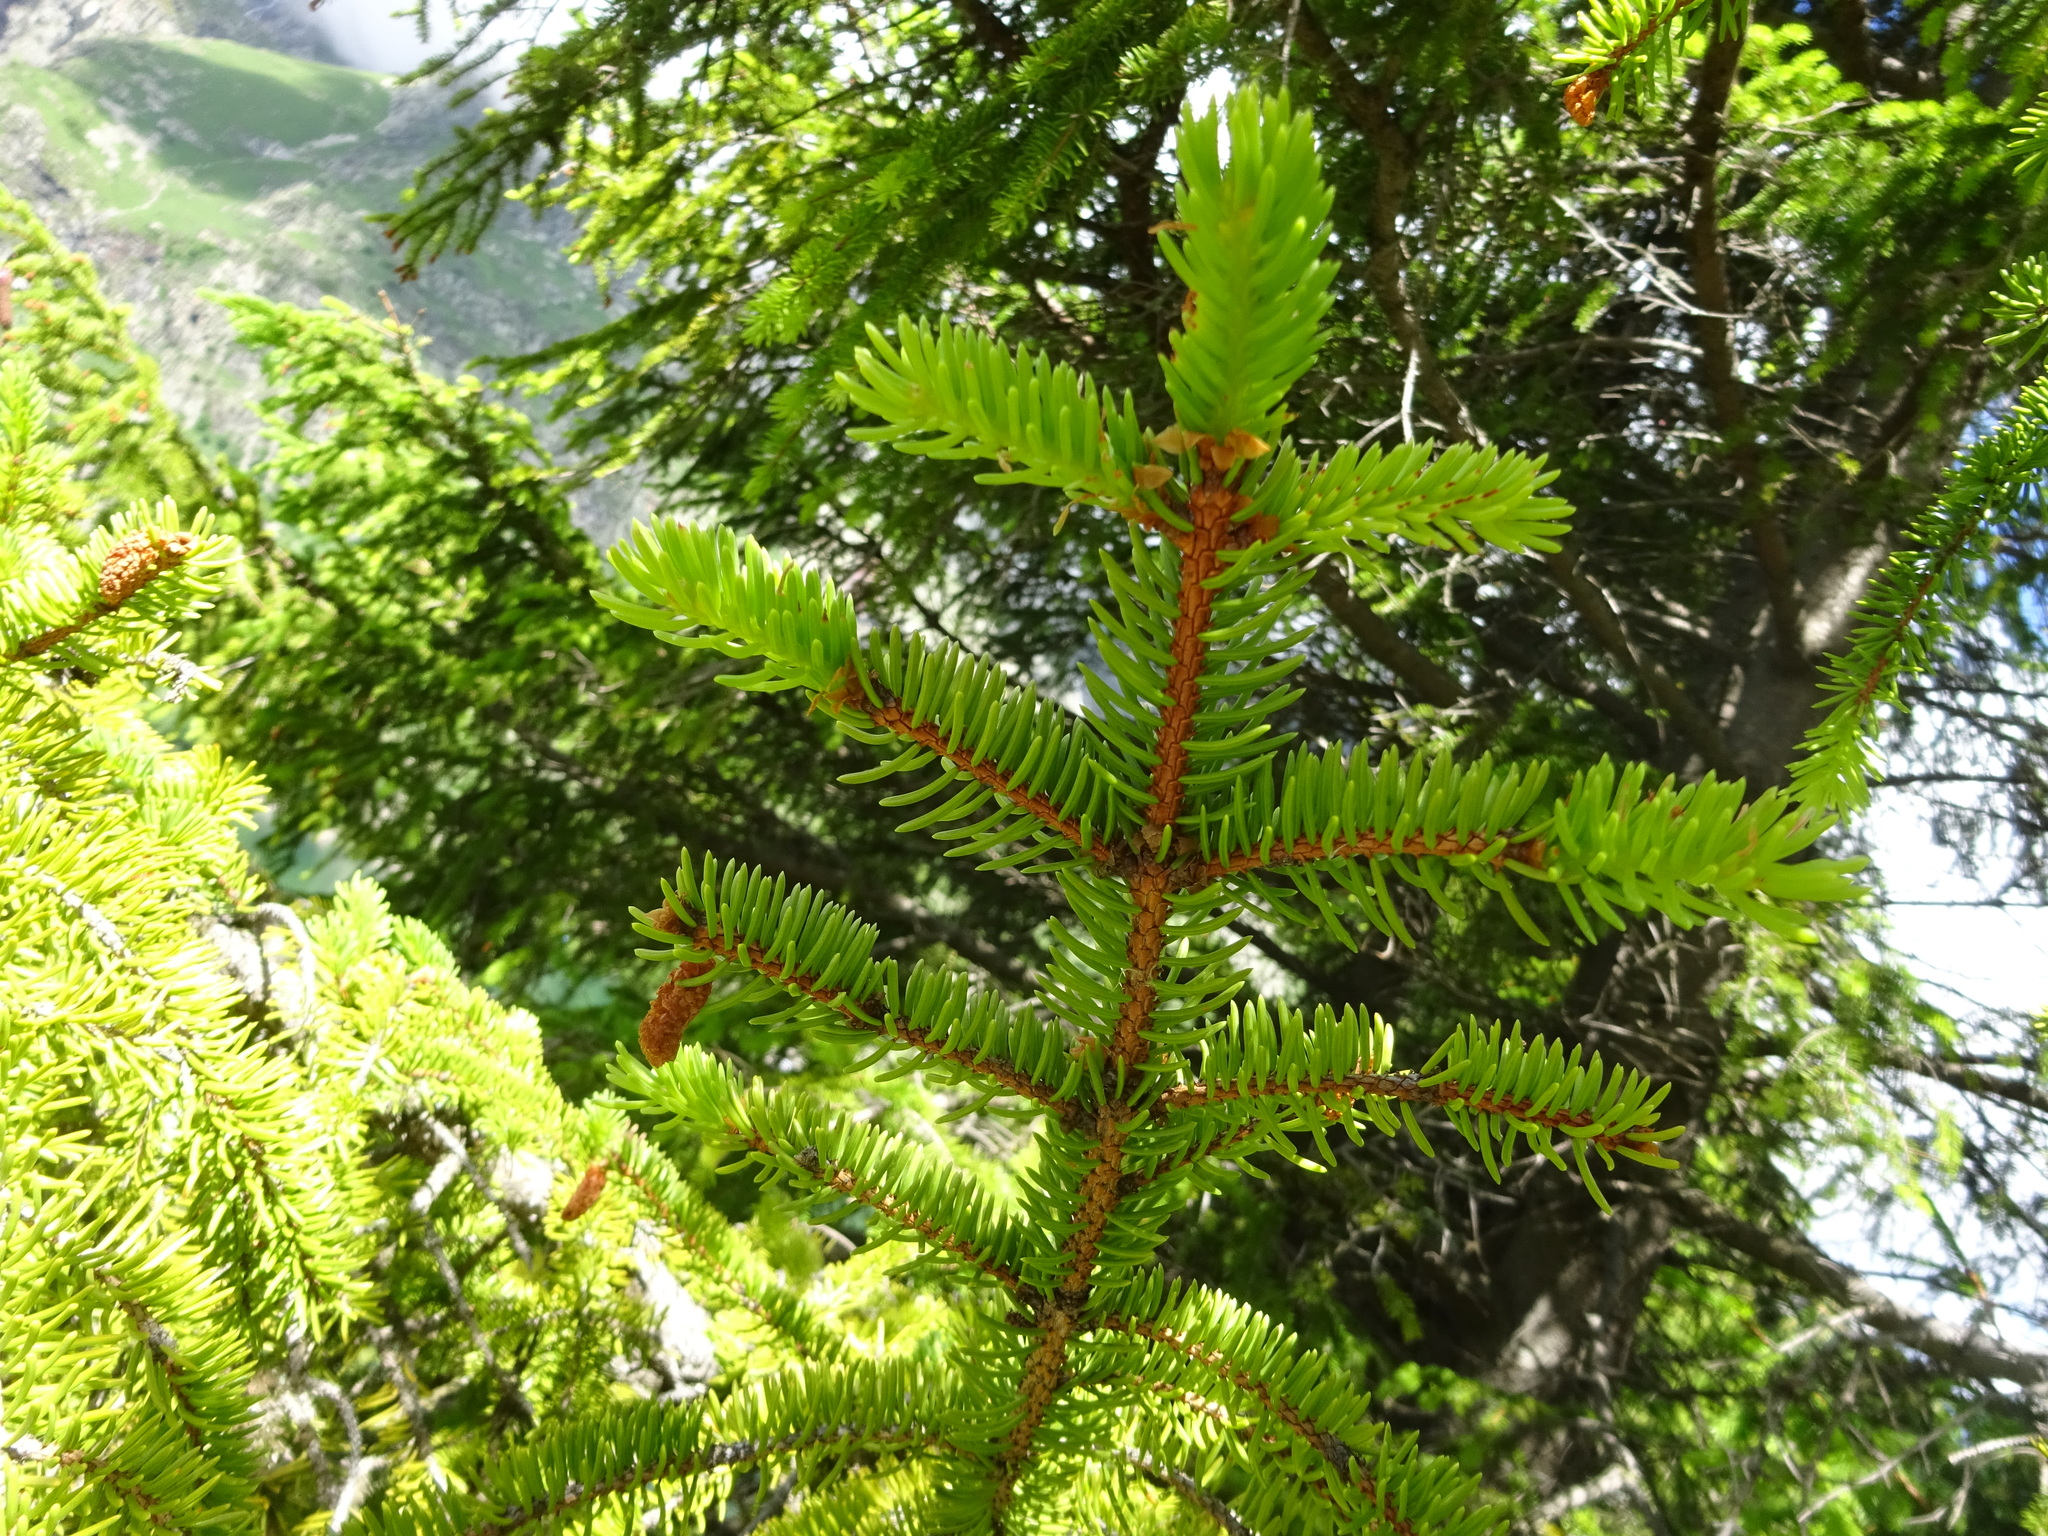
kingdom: Plantae
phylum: Tracheophyta
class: Pinopsida
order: Pinales
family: Pinaceae
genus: Picea
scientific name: Picea abies
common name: Norway spruce
